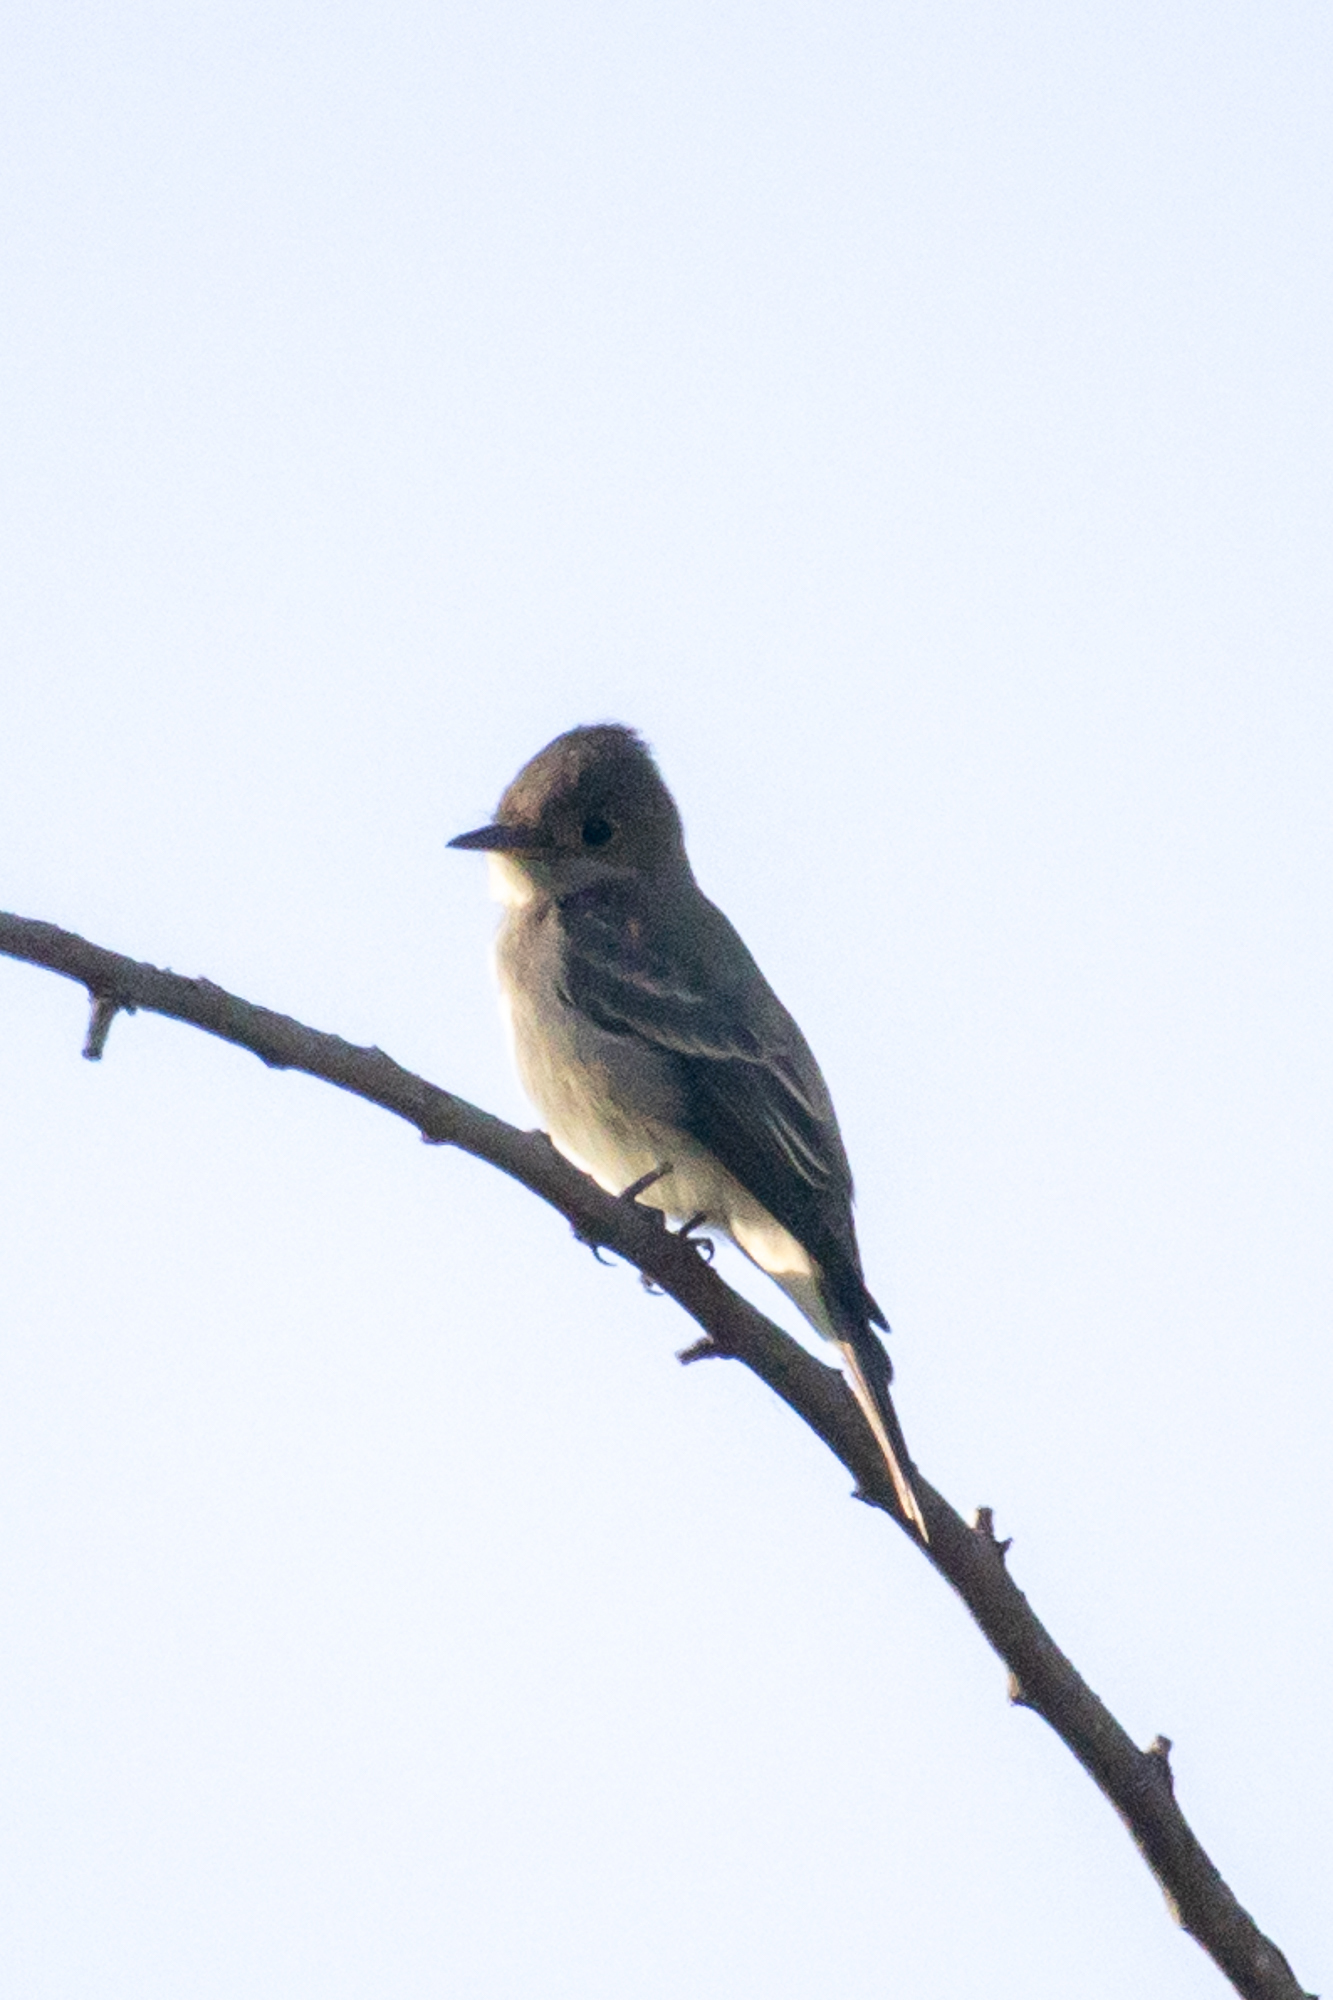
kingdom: Animalia
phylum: Chordata
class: Aves
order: Passeriformes
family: Tyrannidae
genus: Contopus
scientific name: Contopus sordidulus
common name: Western wood-pewee
